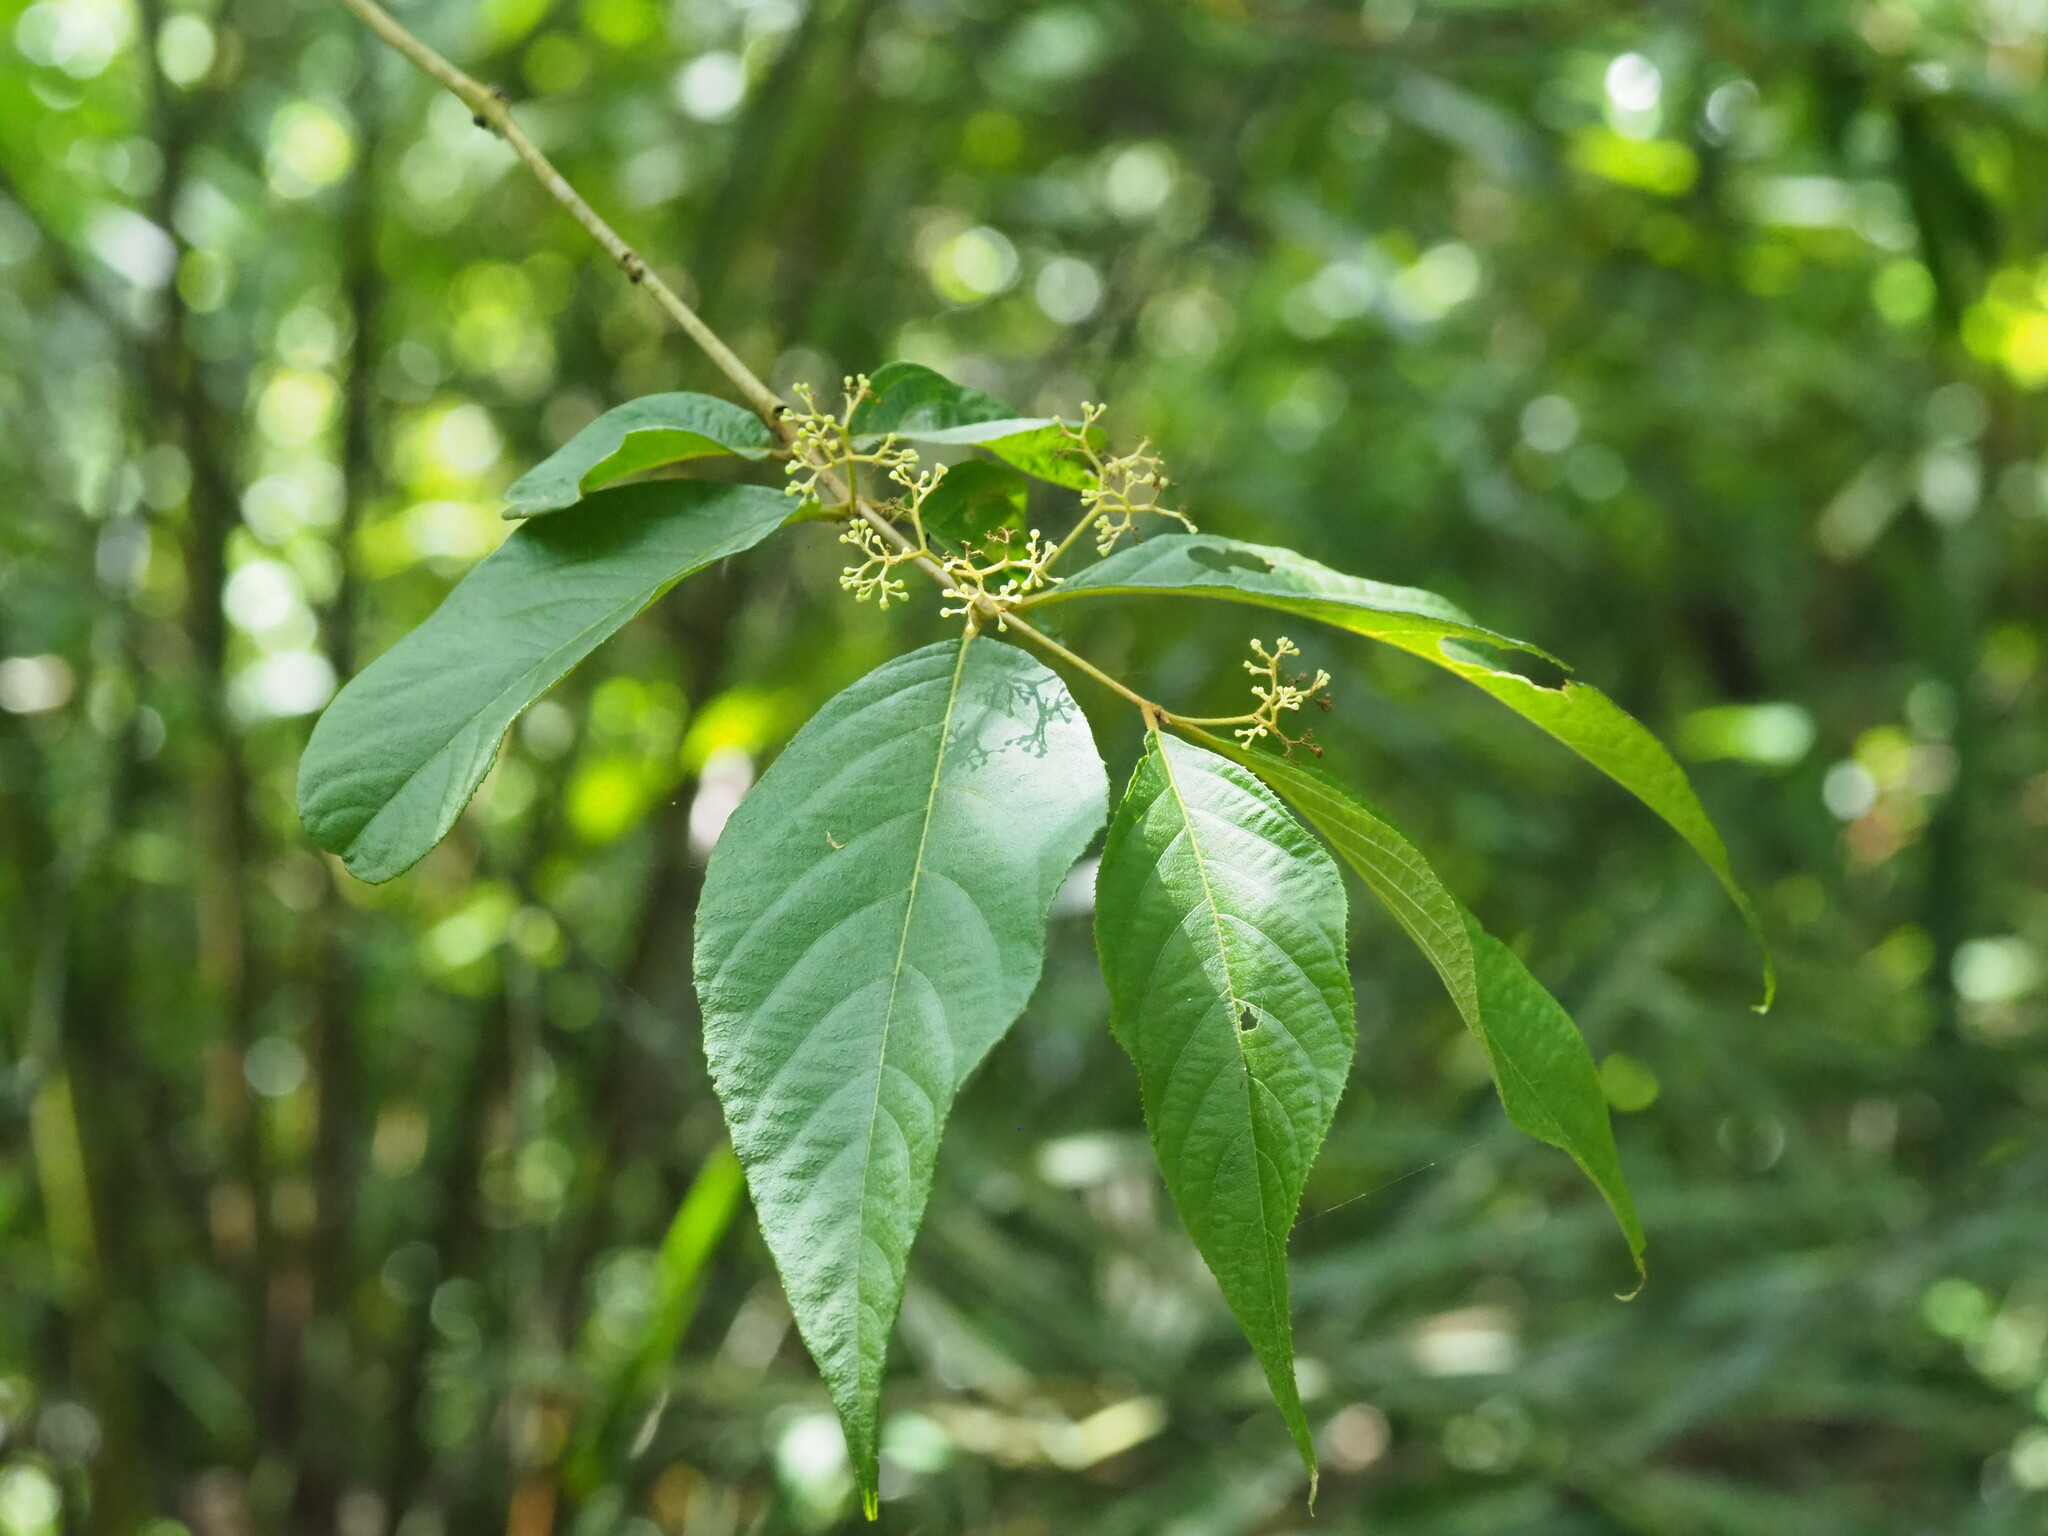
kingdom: Plantae
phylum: Tracheophyta
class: Magnoliopsida
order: Lamiales
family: Lamiaceae
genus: Callicarpa
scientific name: Callicarpa pedunculata
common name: Velvetleaf
